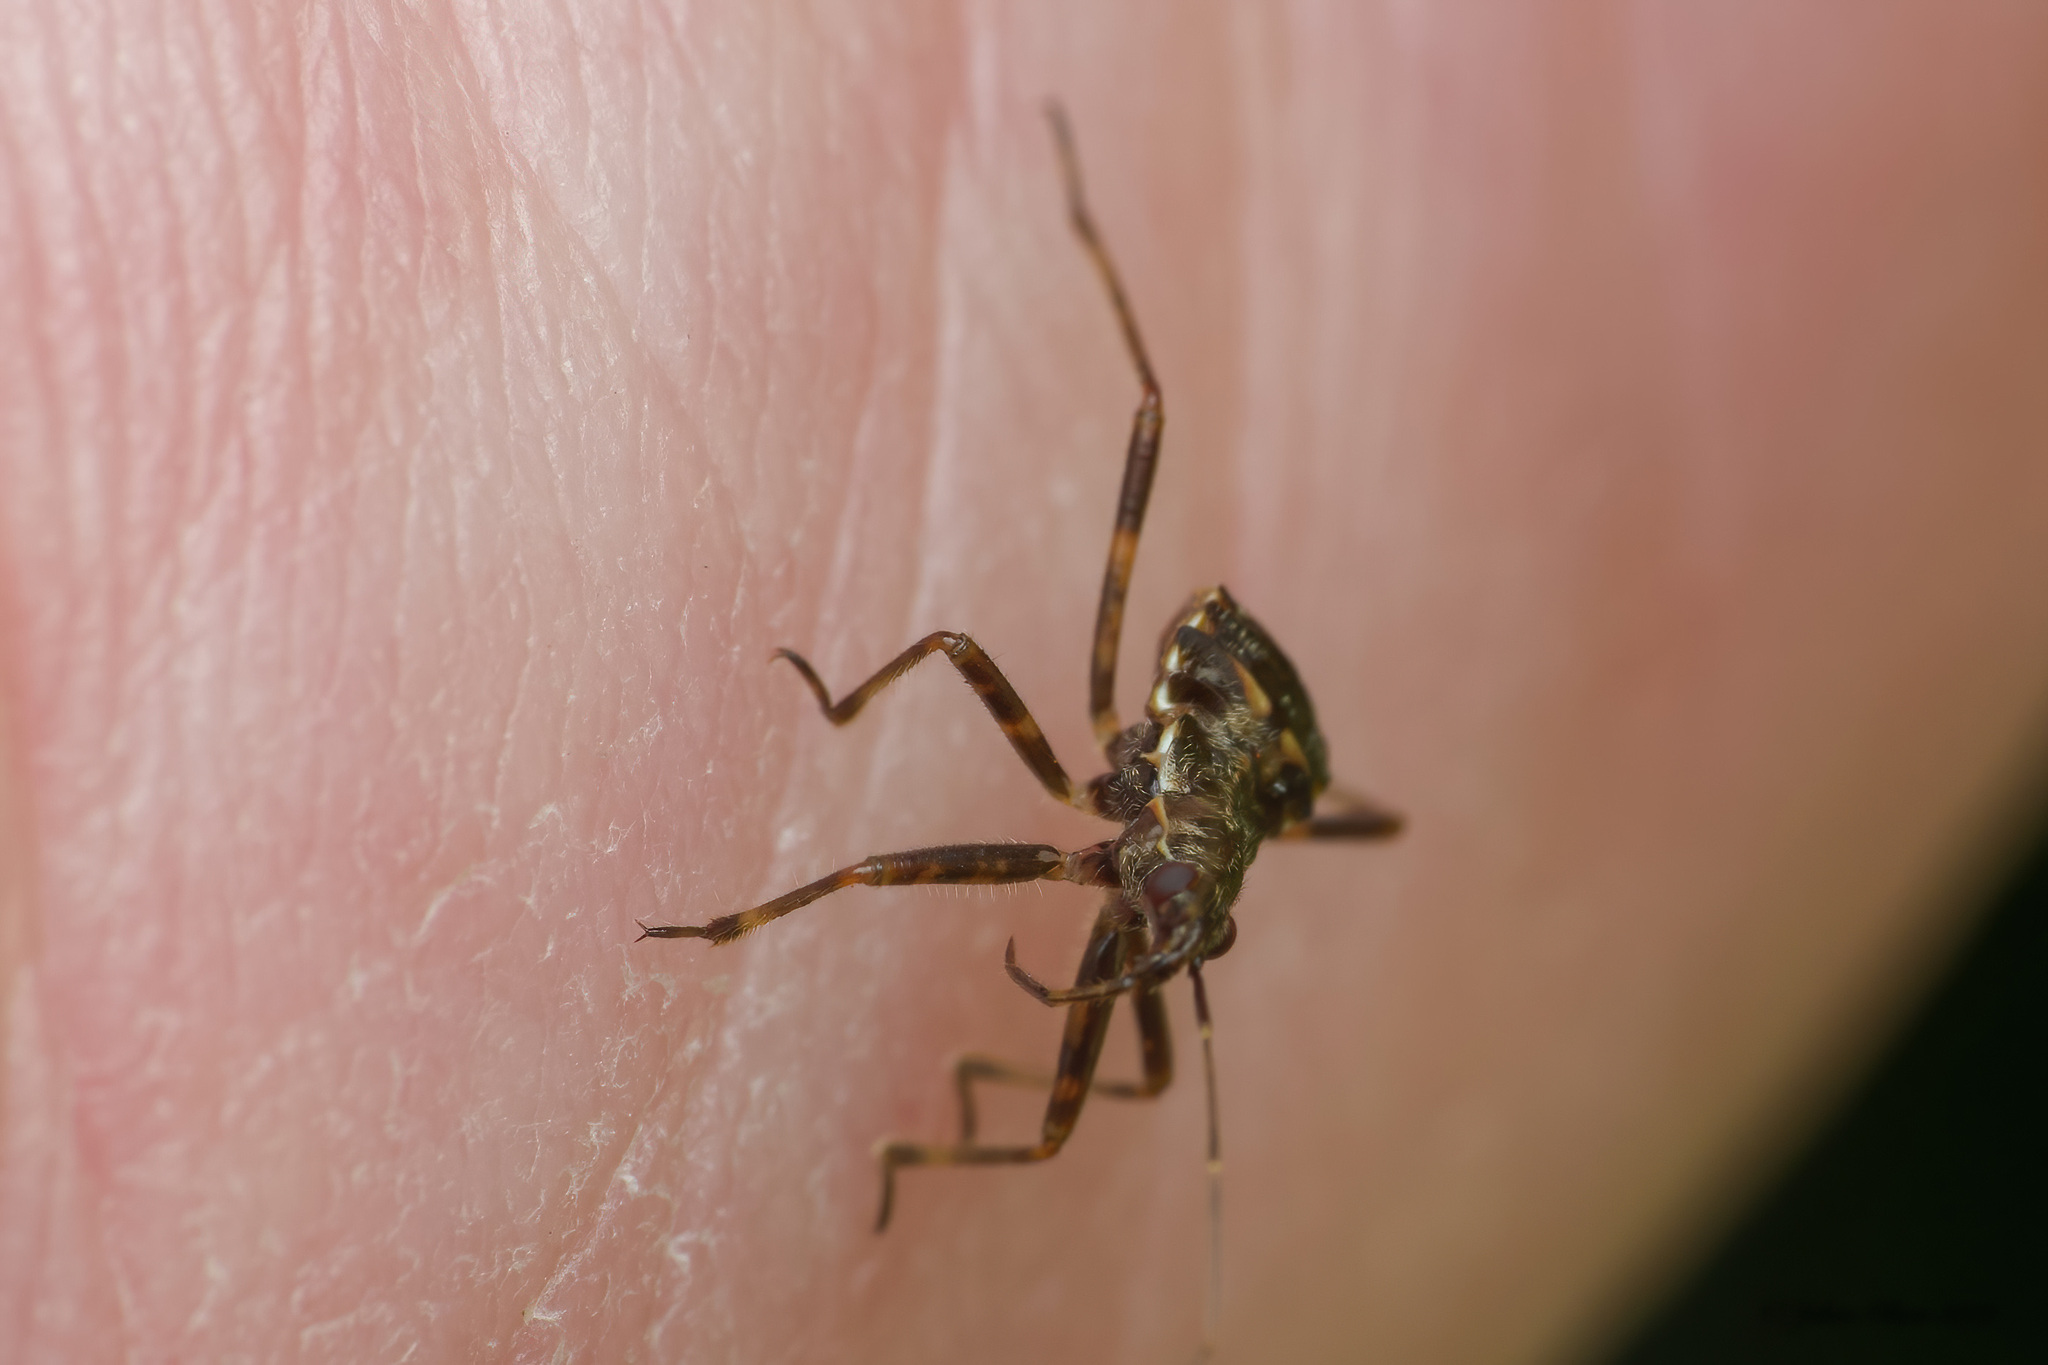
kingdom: Animalia
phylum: Arthropoda
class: Insecta
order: Hemiptera
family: Nabidae
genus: Himacerus
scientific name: Himacerus apterus
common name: Tree damsel bug
